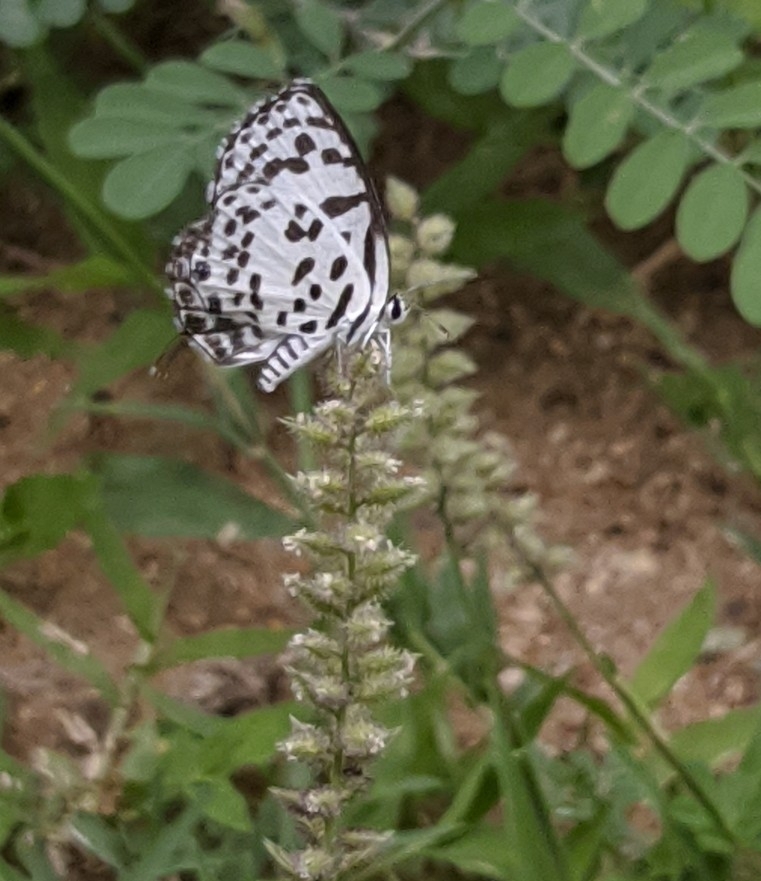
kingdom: Animalia
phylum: Arthropoda
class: Insecta
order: Lepidoptera
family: Lycaenidae
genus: Castalius
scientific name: Castalius rosimon
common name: Common pierrot
